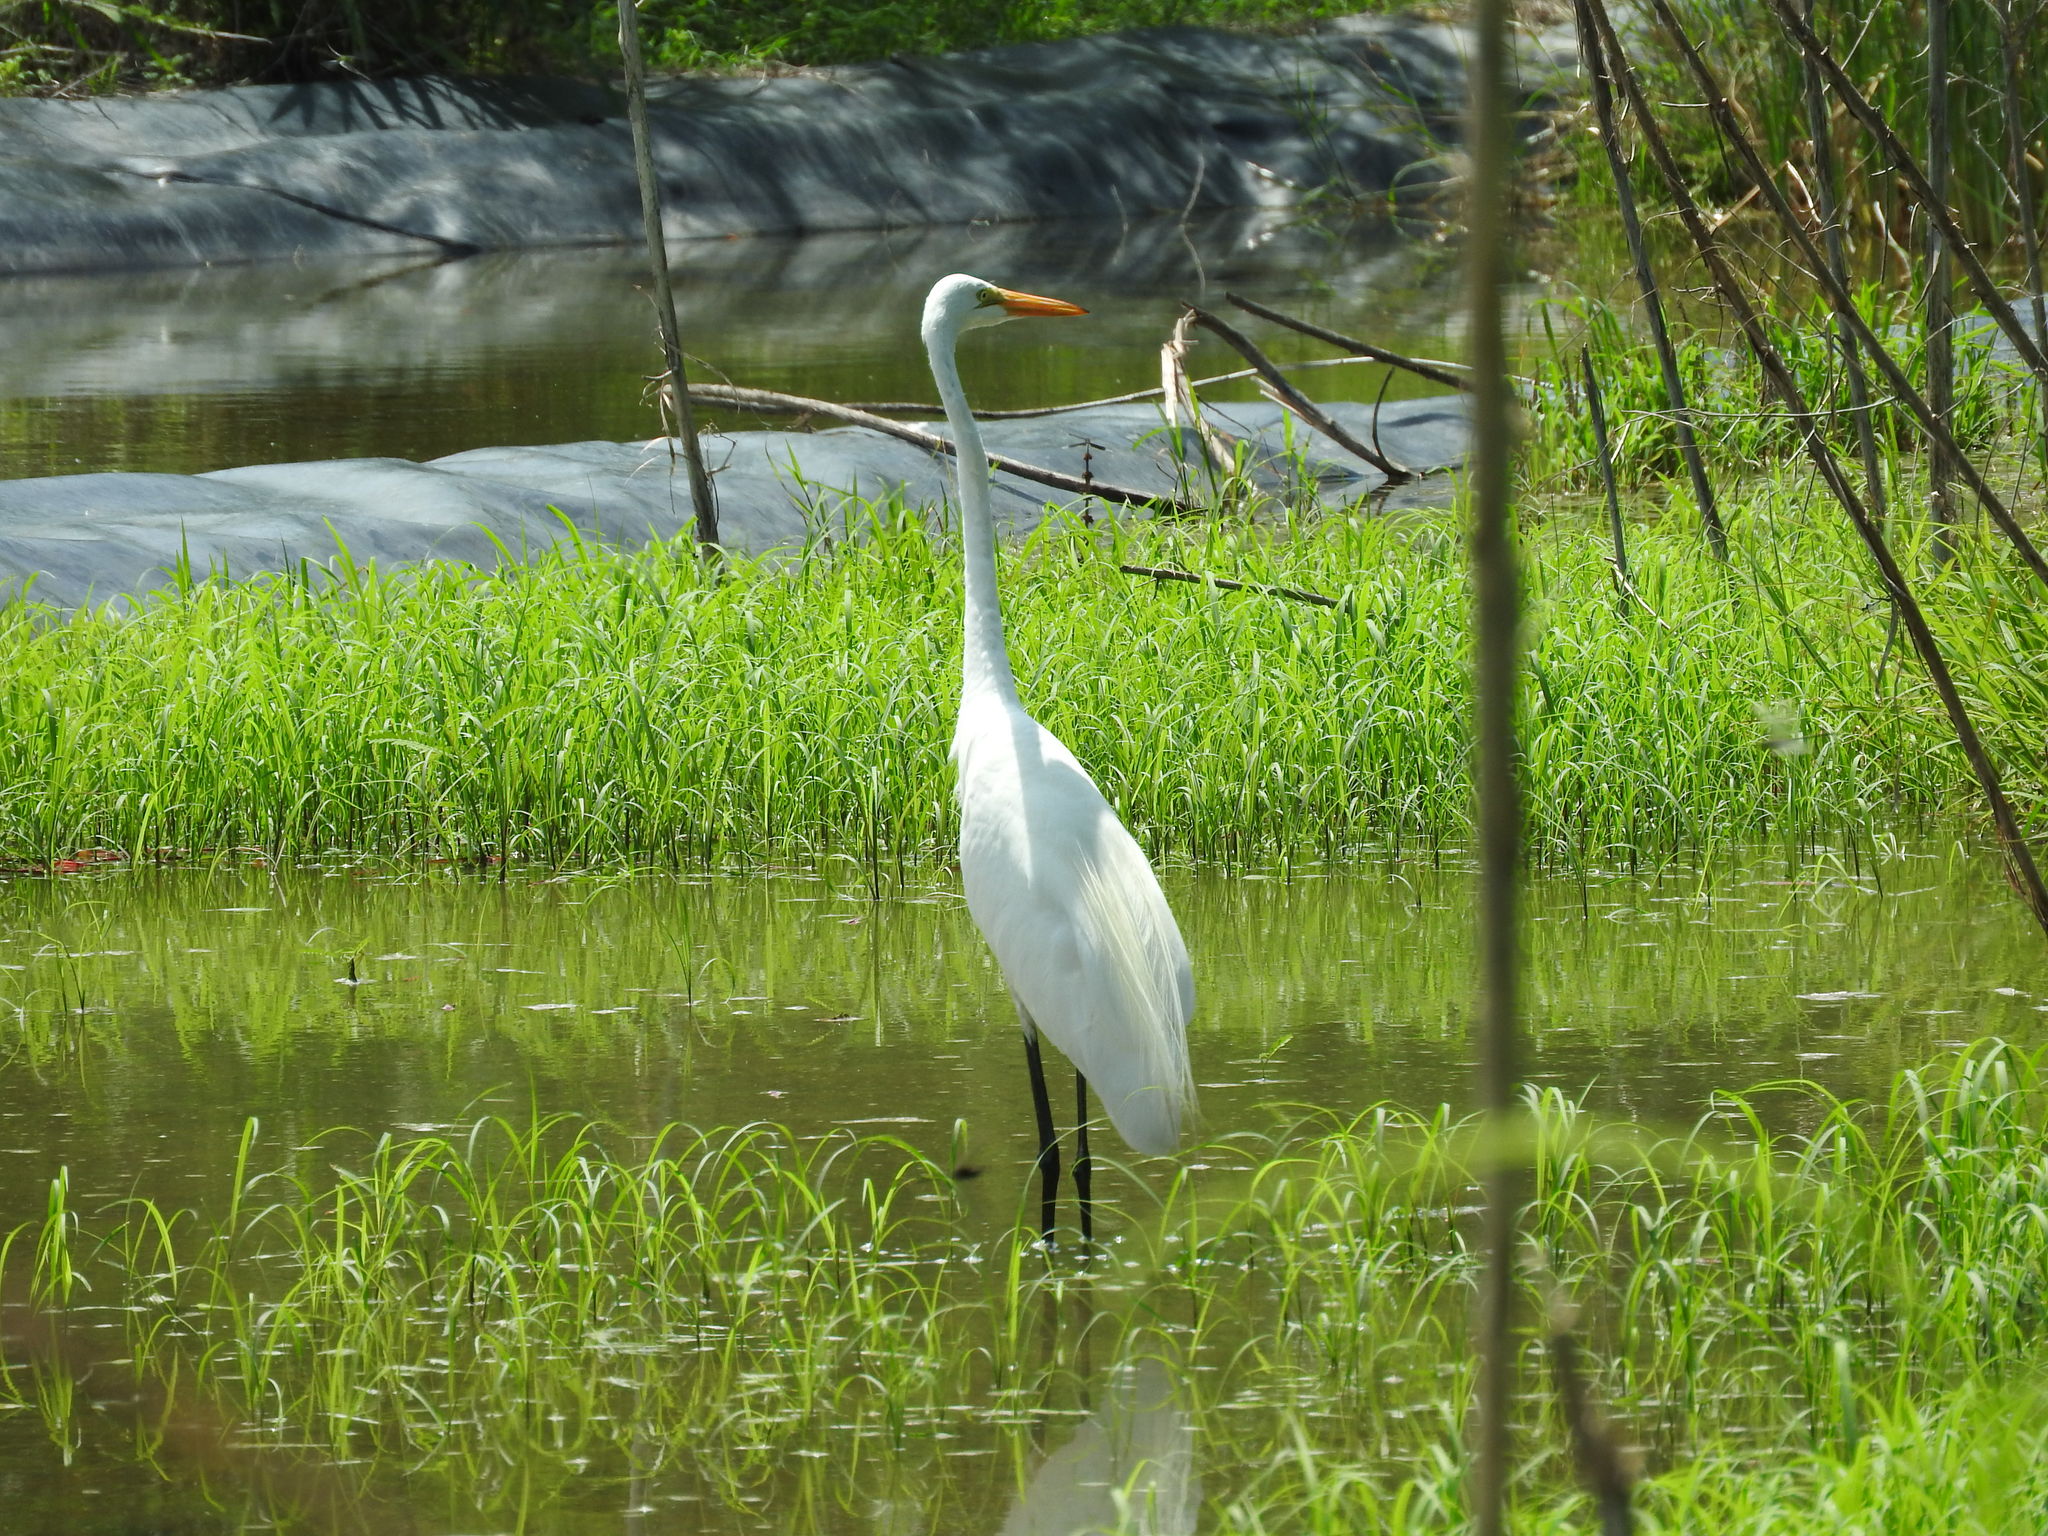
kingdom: Animalia
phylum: Chordata
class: Aves
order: Pelecaniformes
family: Ardeidae
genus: Ardea
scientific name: Ardea alba
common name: Great egret
